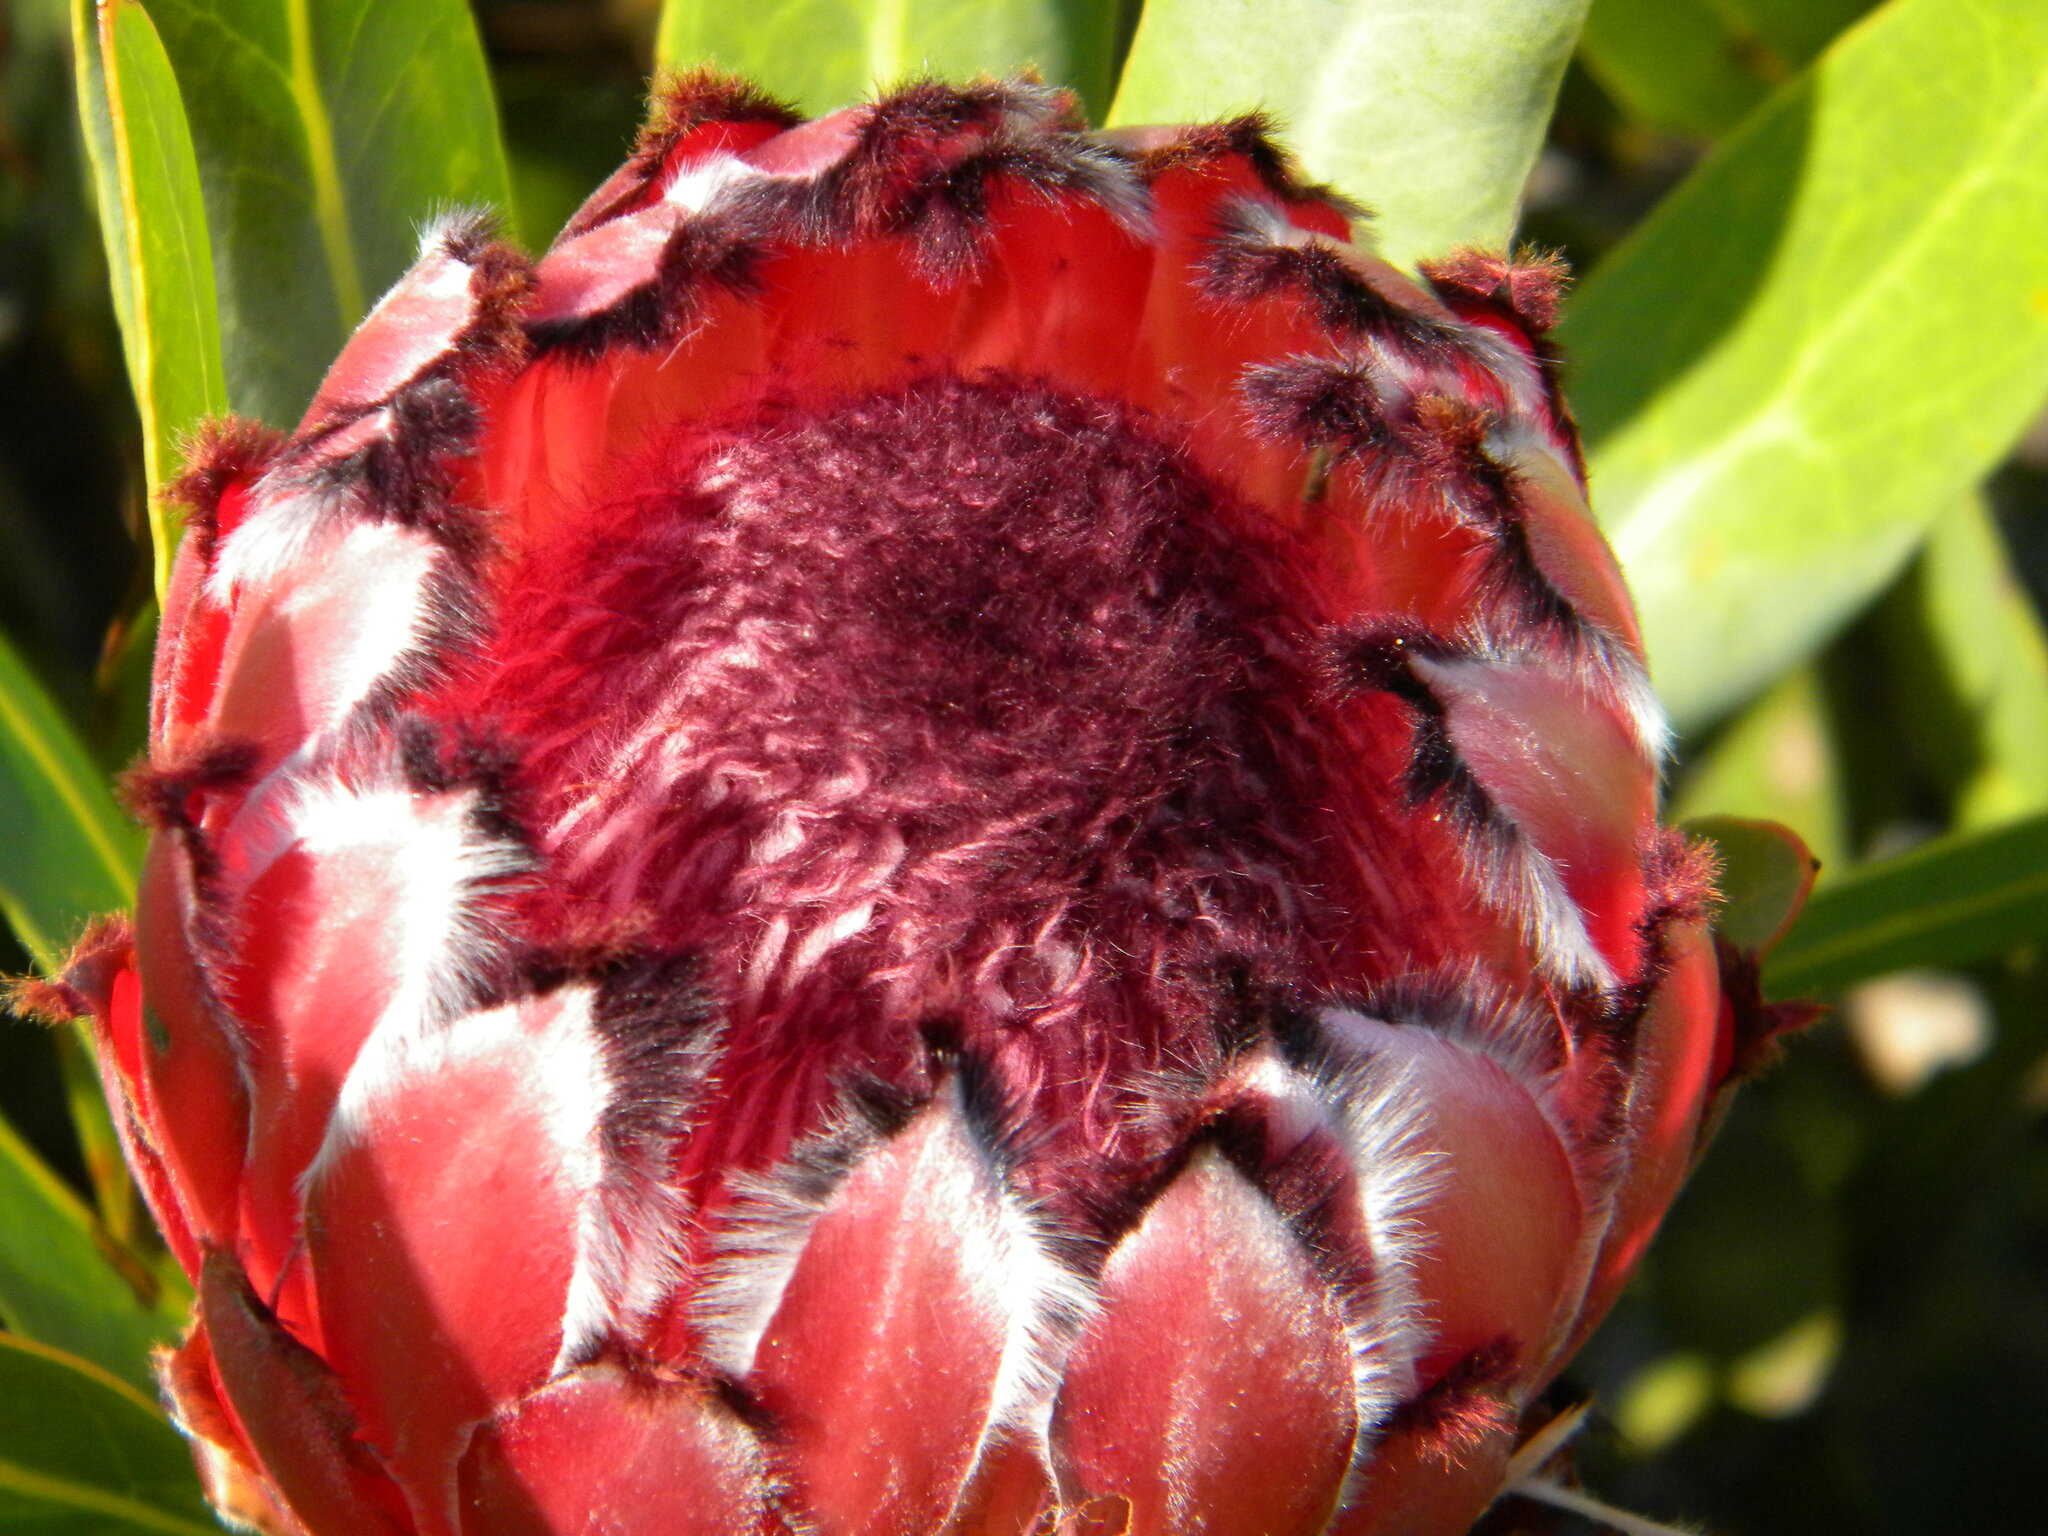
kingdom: Plantae
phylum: Tracheophyta
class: Magnoliopsida
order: Proteales
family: Proteaceae
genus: Protea
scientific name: Protea laurifolia
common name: Grey-leaf sugarbsh
